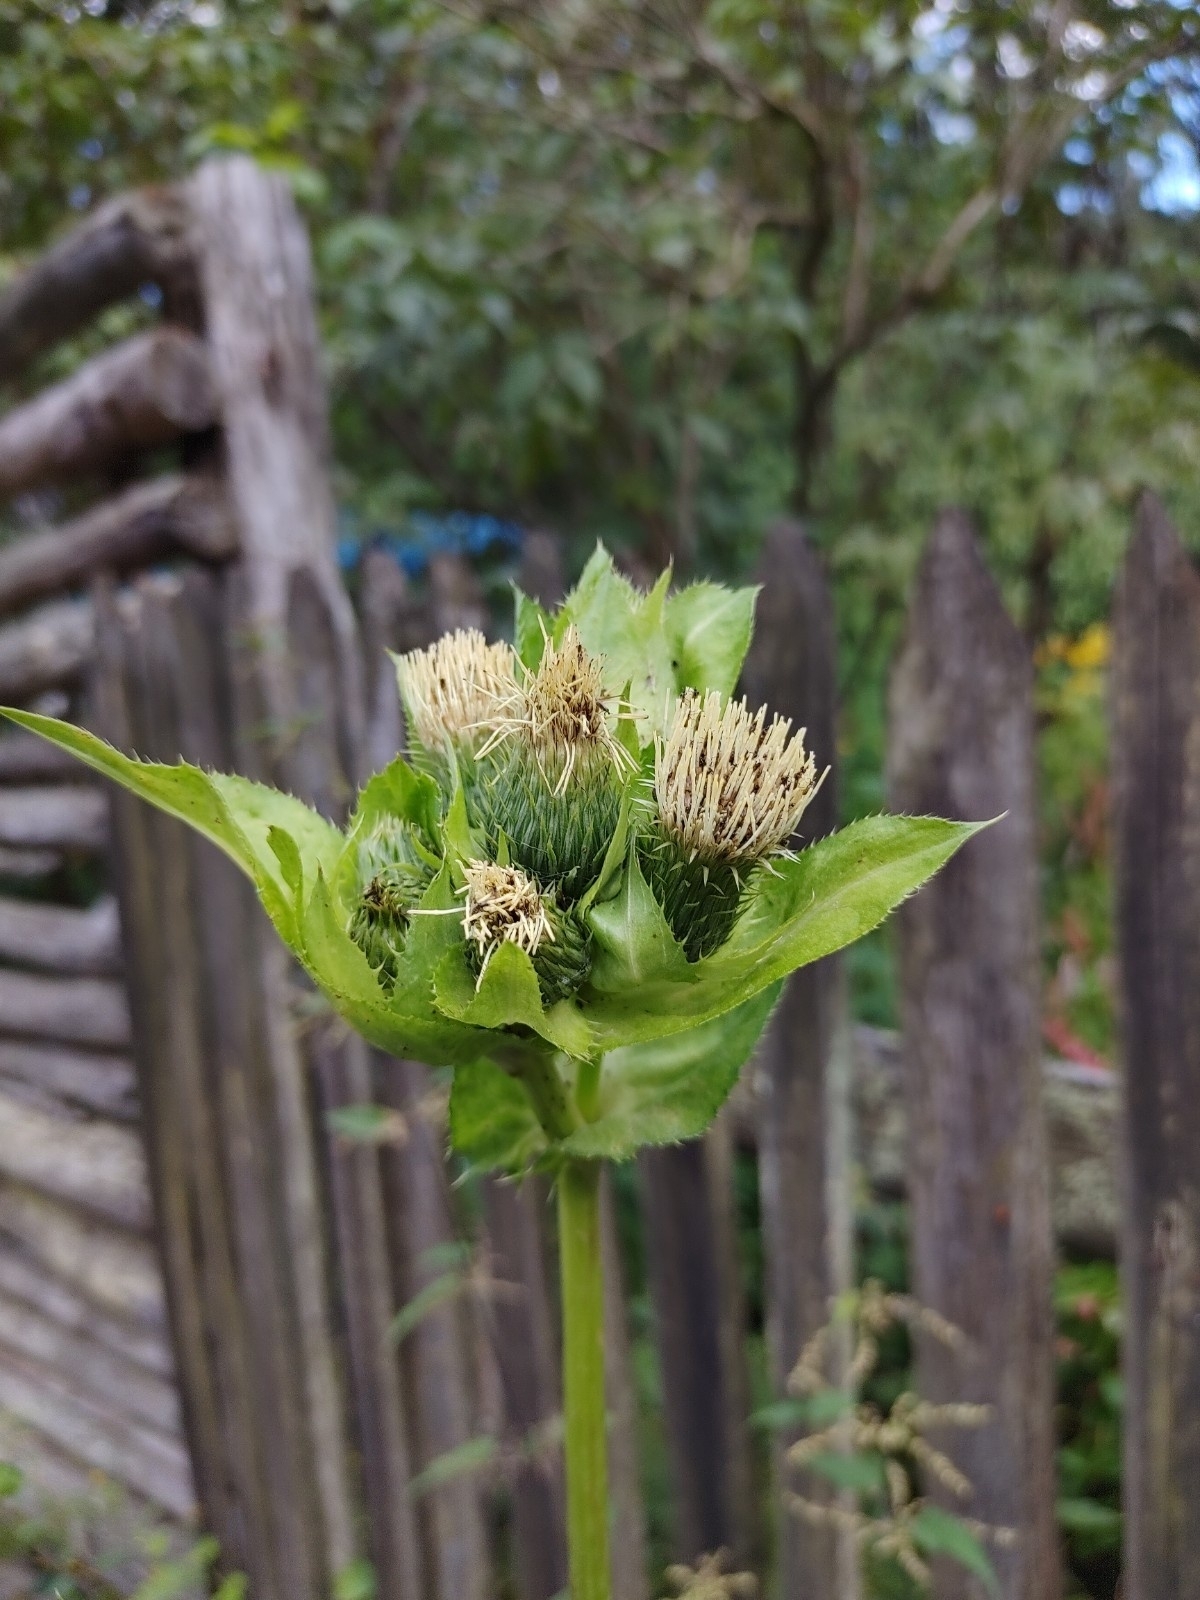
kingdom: Plantae
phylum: Tracheophyta
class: Magnoliopsida
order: Asterales
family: Asteraceae
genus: Cirsium
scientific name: Cirsium oleraceum
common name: Cabbage thistle
